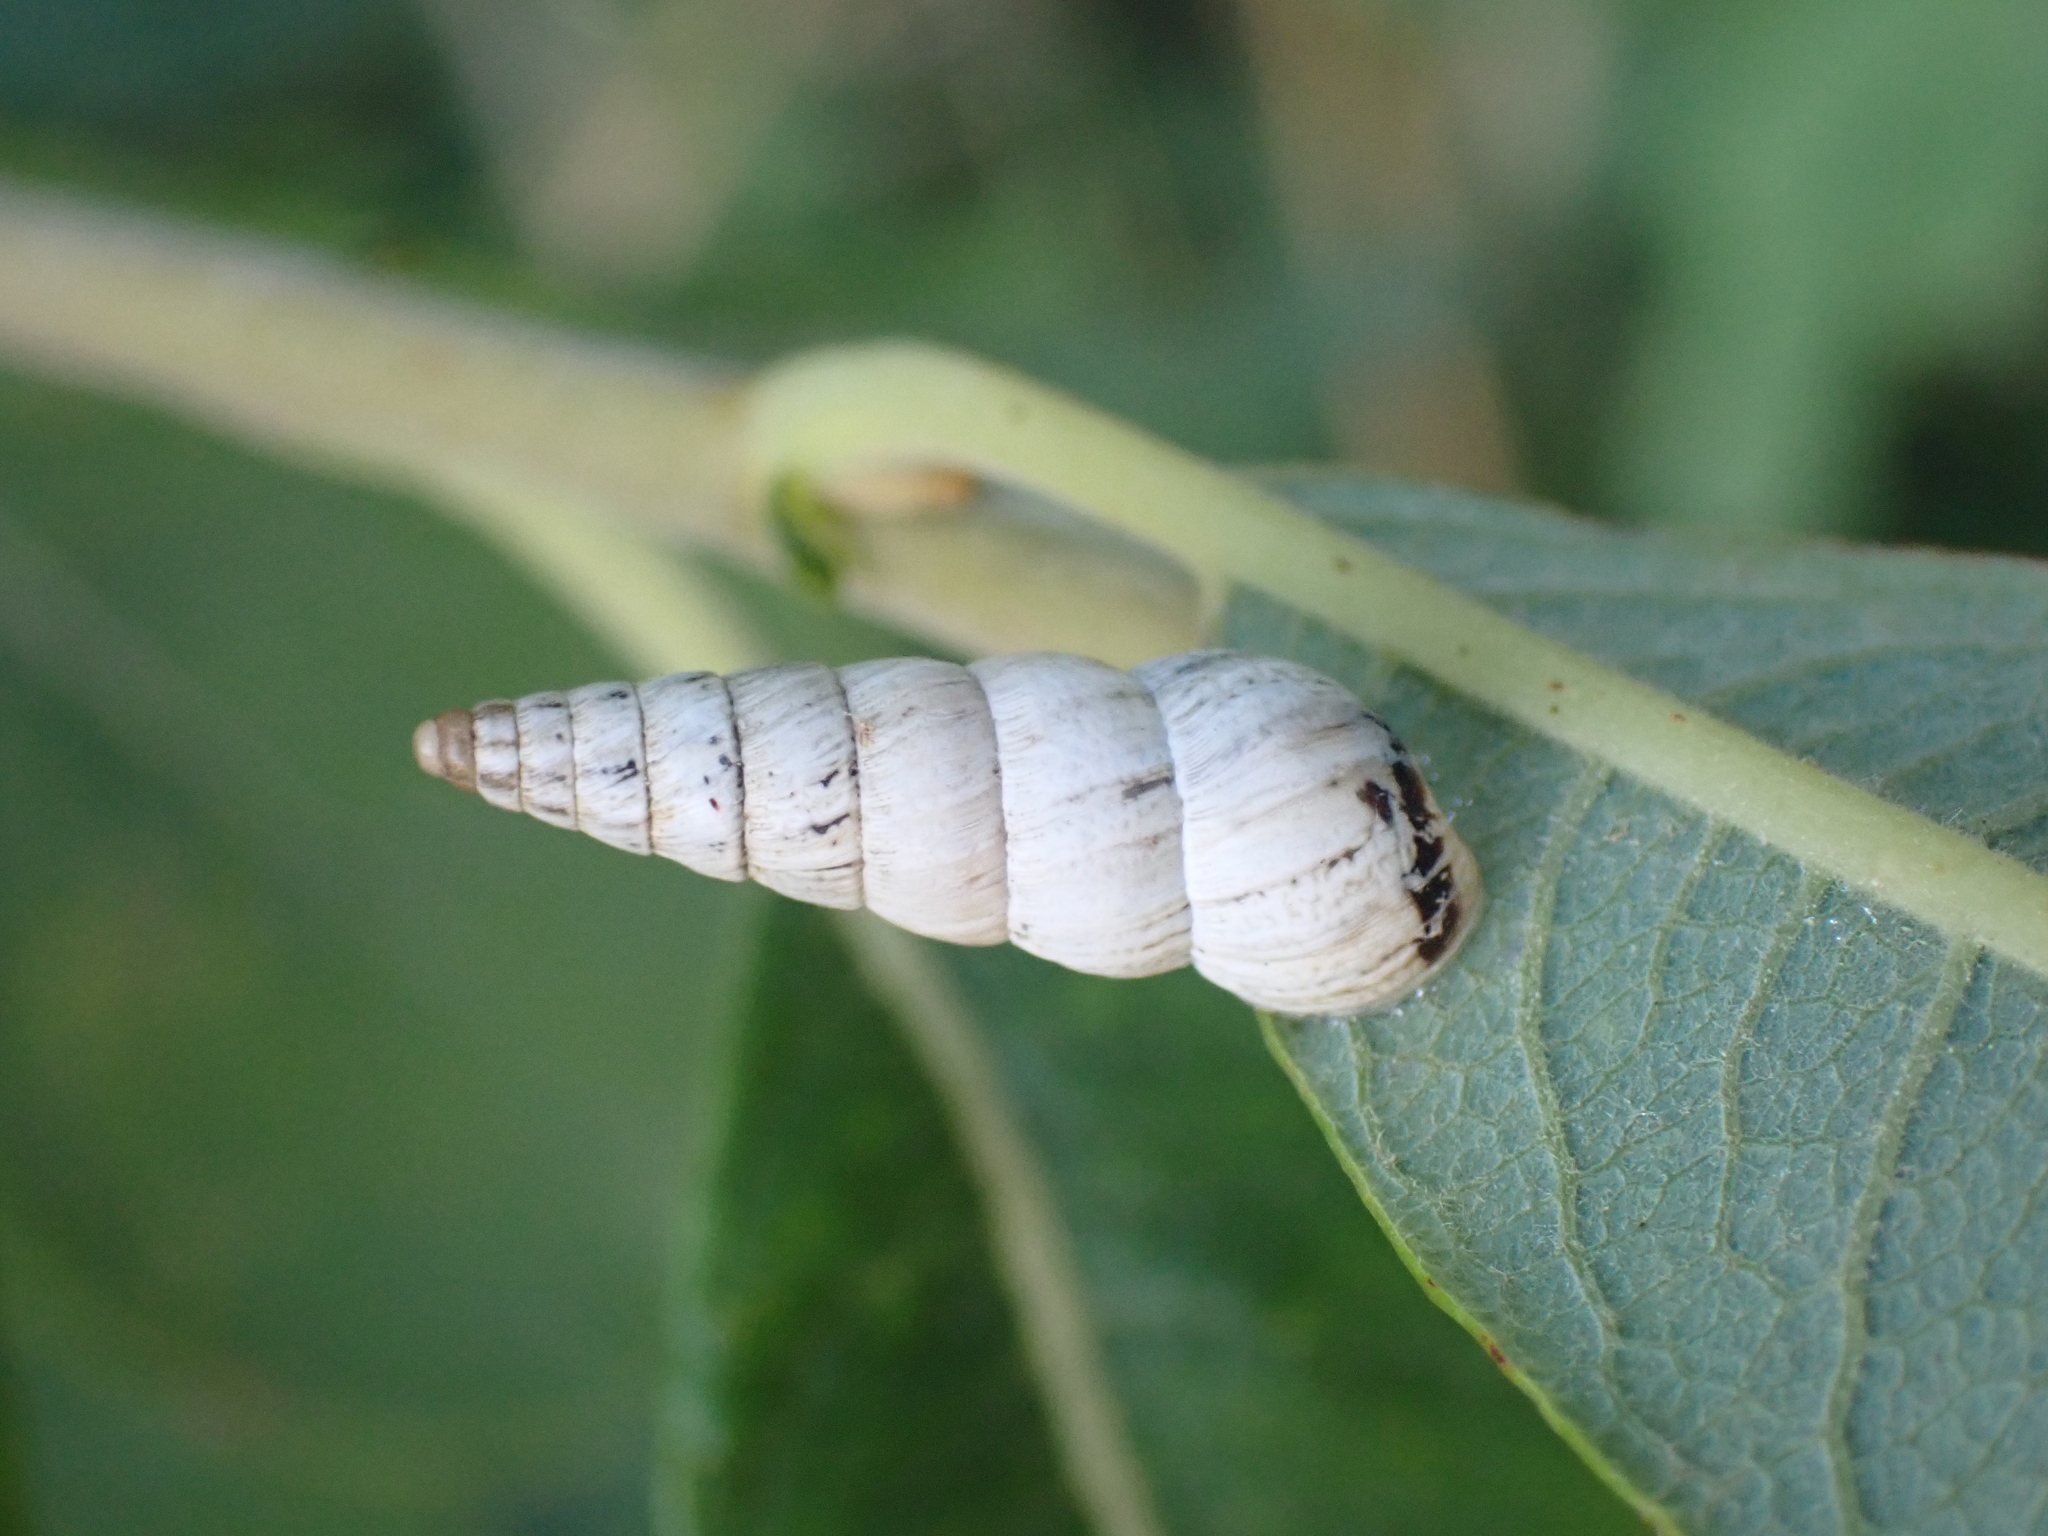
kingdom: Animalia
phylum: Mollusca
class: Gastropoda
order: Stylommatophora
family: Geomitridae
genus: Cochlicella
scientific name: Cochlicella acuta
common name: Pointed snail
